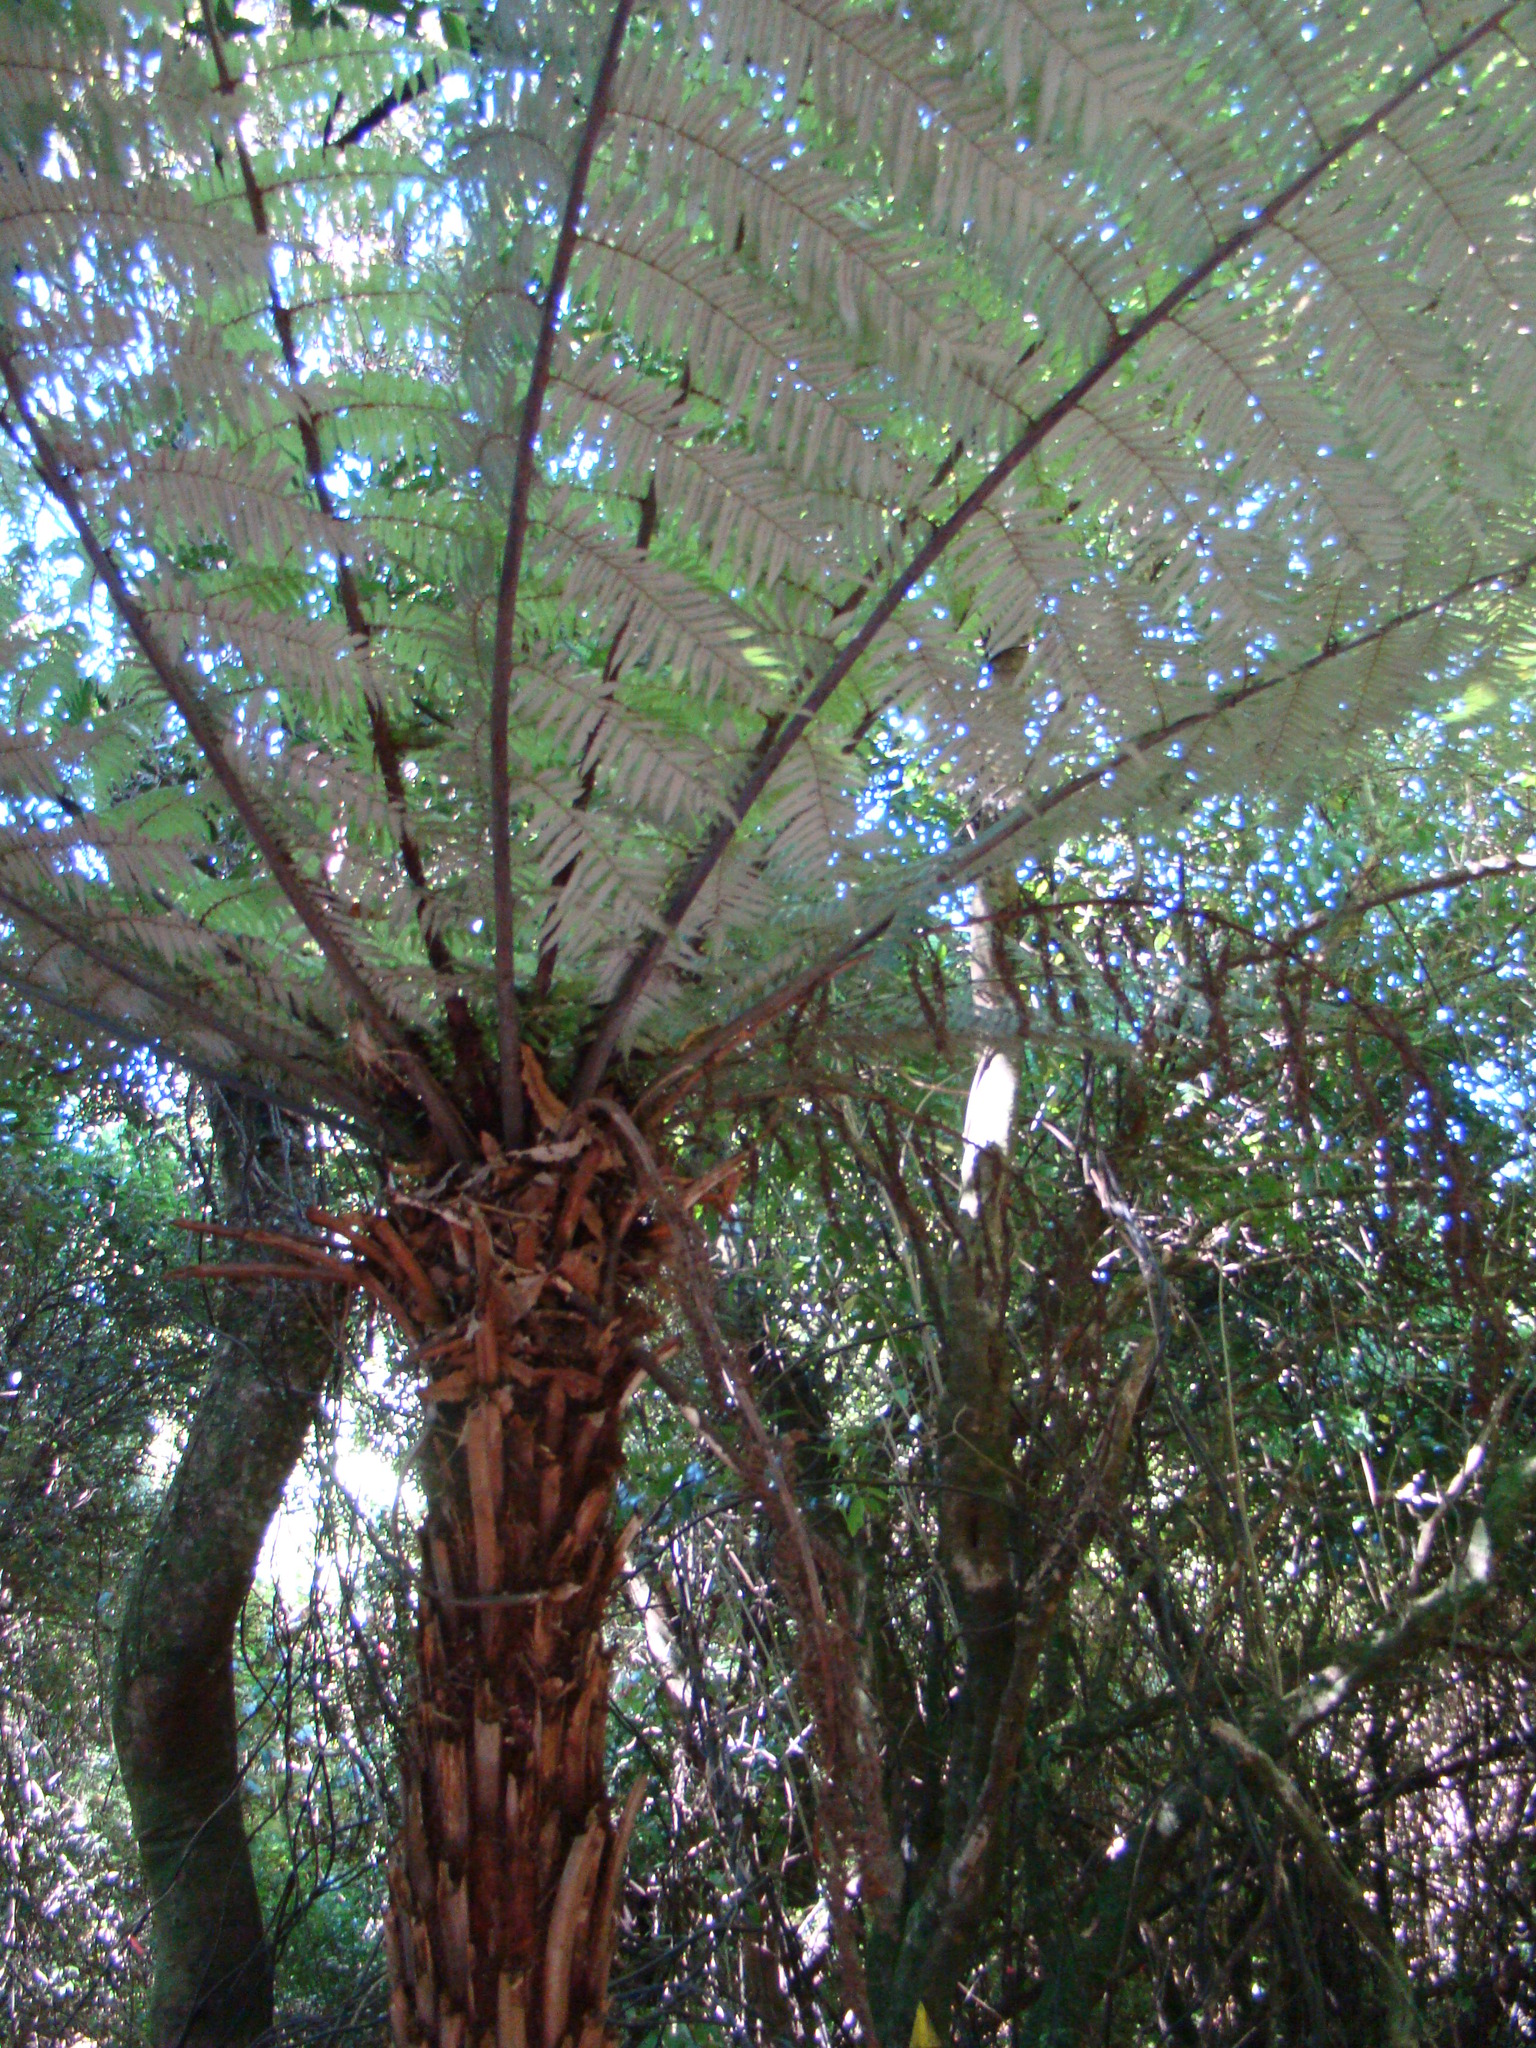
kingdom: Plantae
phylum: Tracheophyta
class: Polypodiopsida
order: Cyatheales
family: Cyatheaceae
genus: Alsophila
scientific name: Alsophila dealbata
